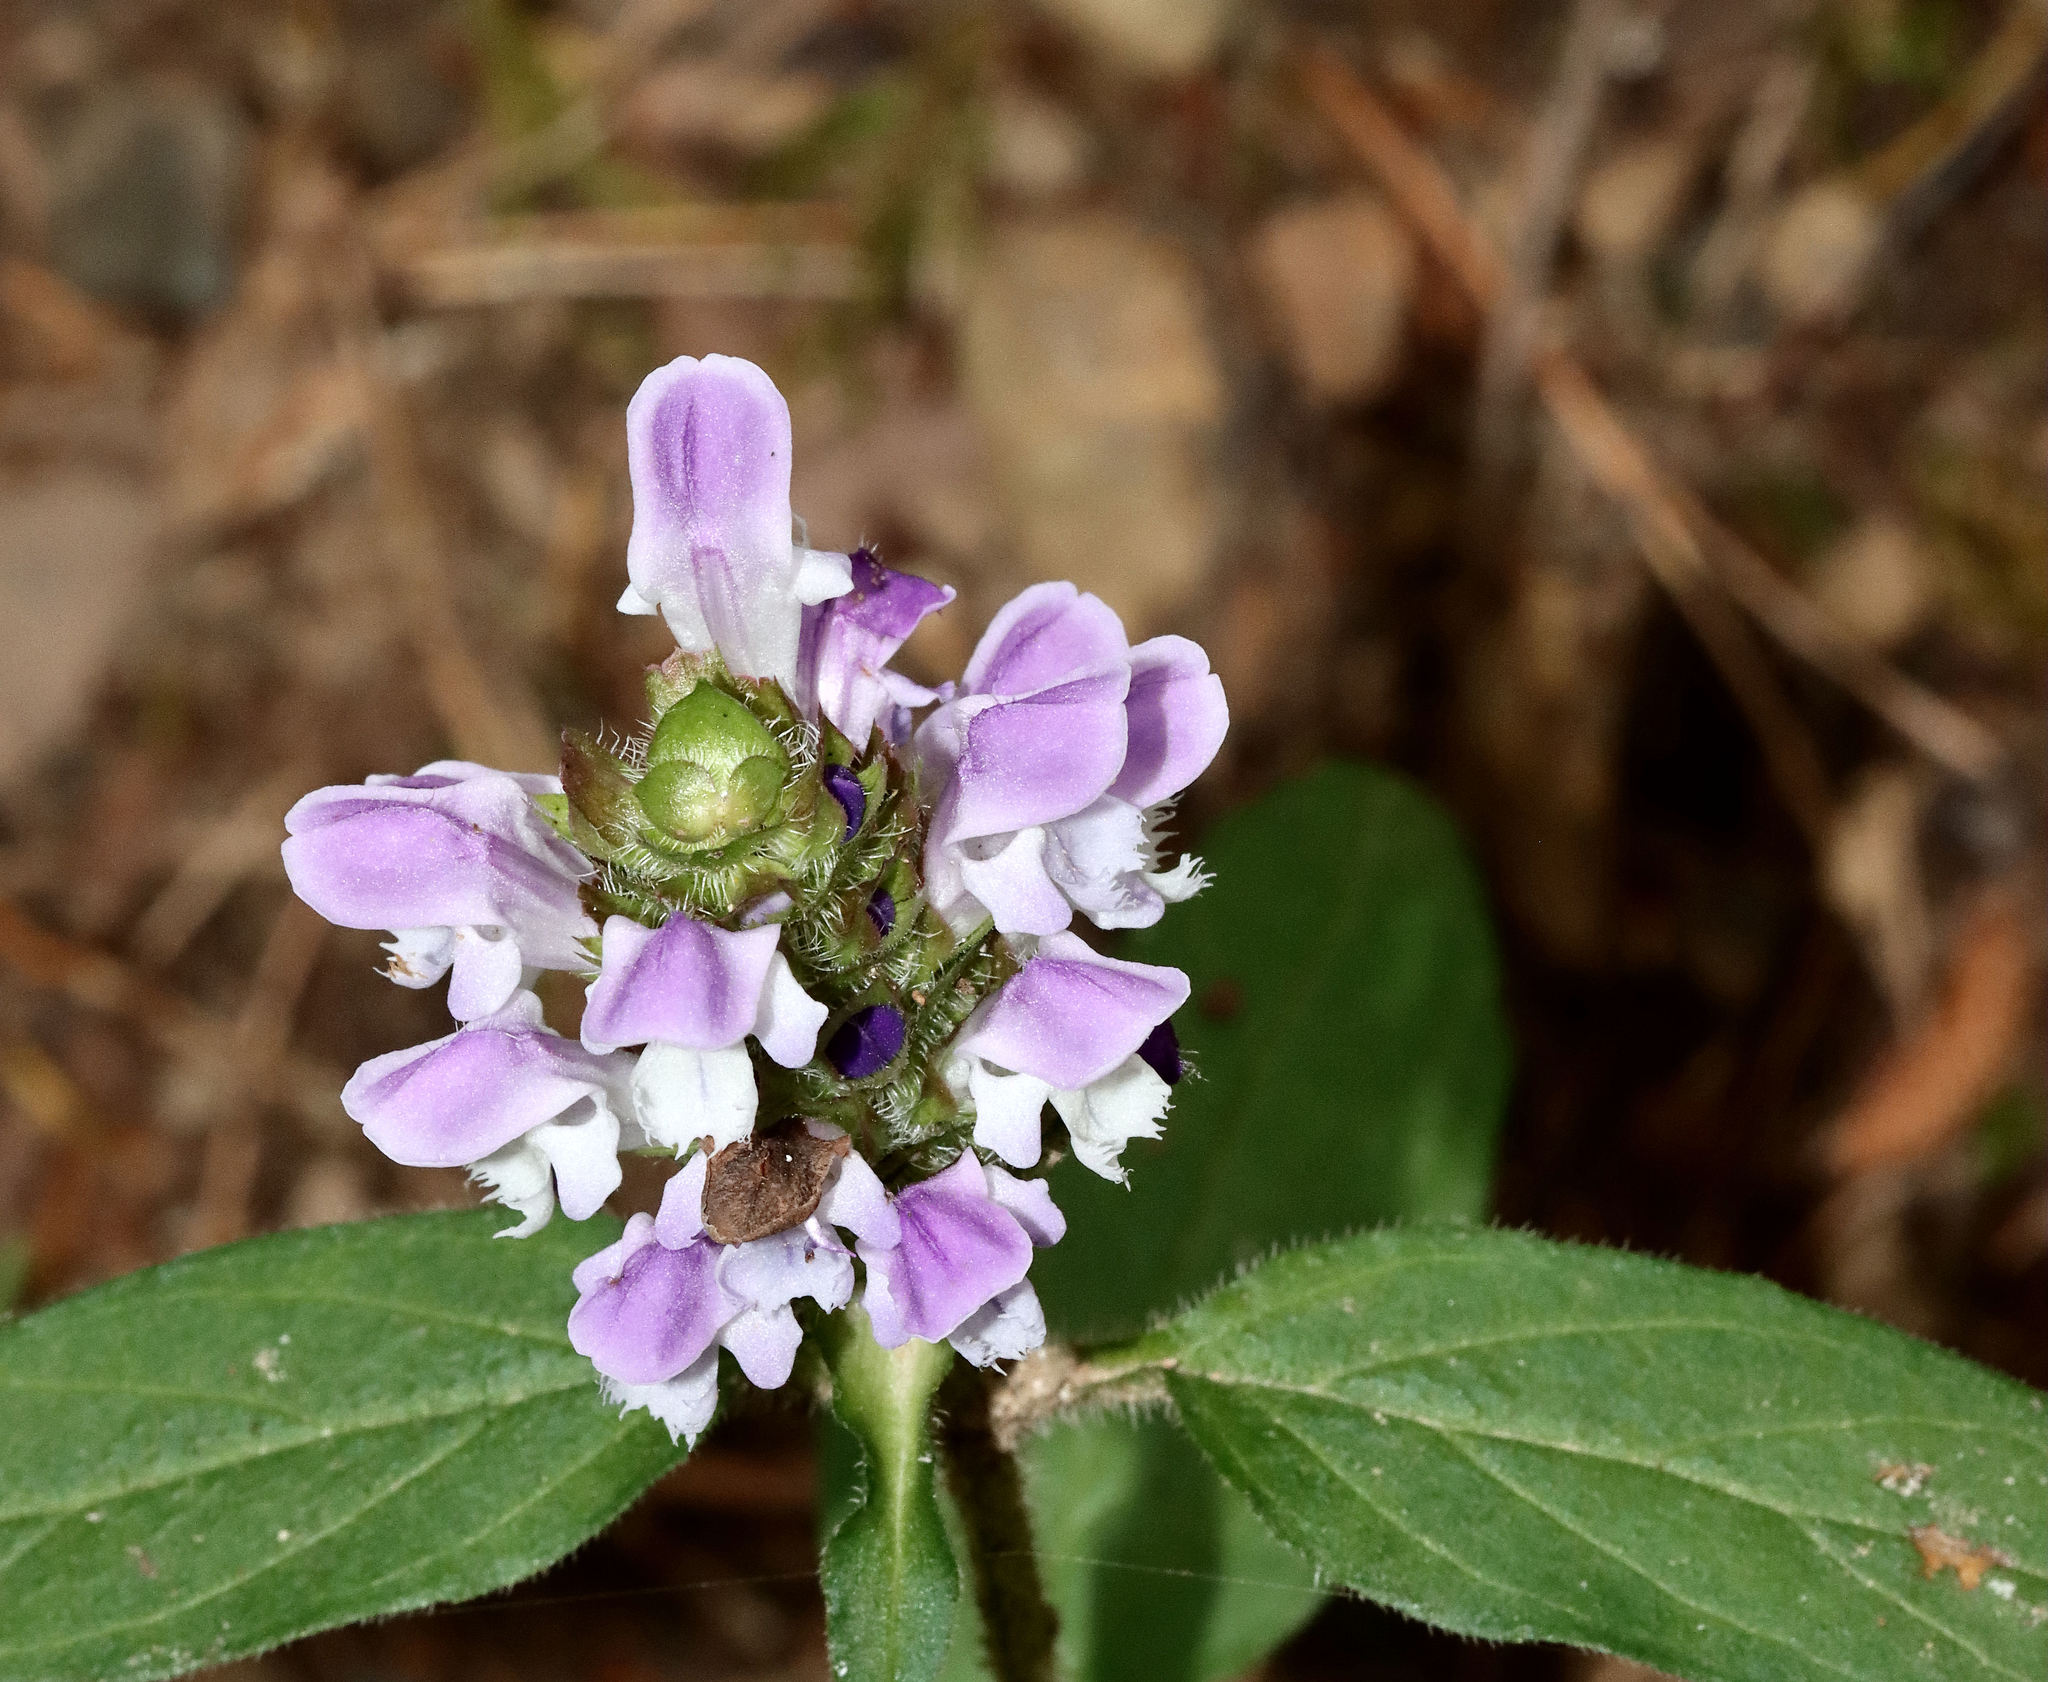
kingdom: Plantae
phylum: Tracheophyta
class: Magnoliopsida
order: Lamiales
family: Lamiaceae
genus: Prunella
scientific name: Prunella vulgaris
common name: Heal-all
